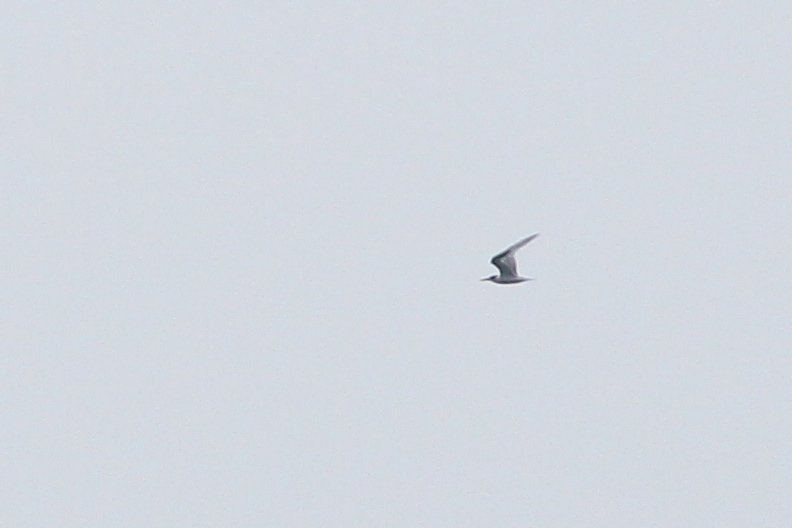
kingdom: Animalia
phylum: Chordata
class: Aves
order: Charadriiformes
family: Laridae
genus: Thalasseus
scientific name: Thalasseus sandvicensis
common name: Sandwich tern
